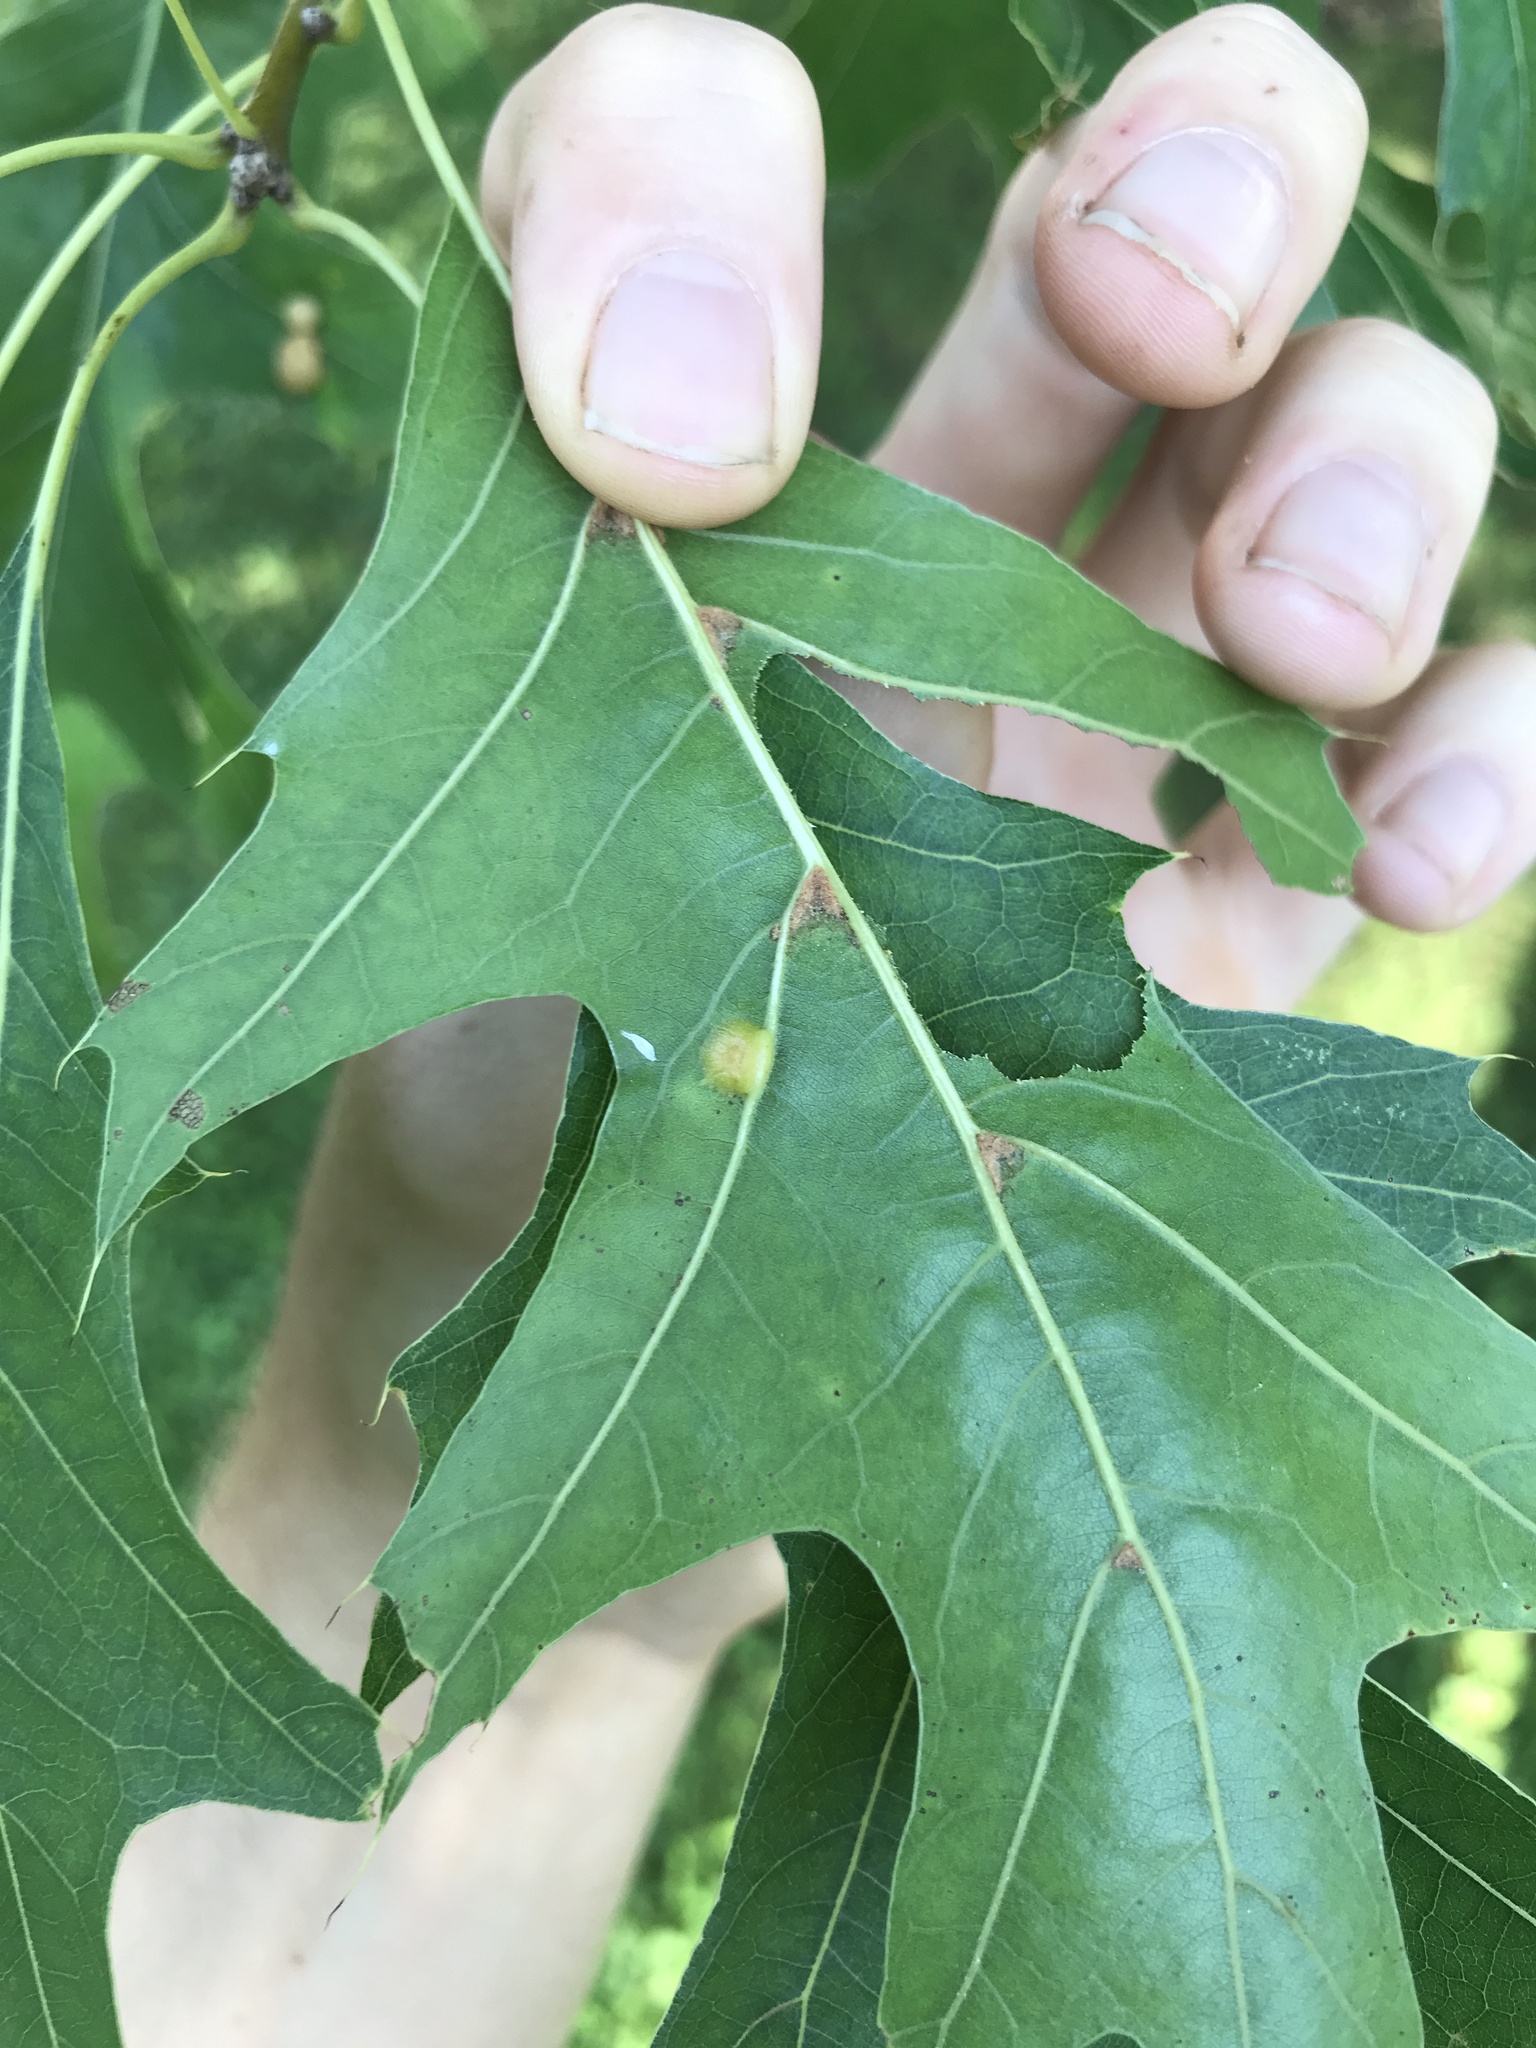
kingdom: Animalia
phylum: Arthropoda
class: Insecta
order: Diptera
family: Cecidomyiidae
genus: Polystepha
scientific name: Polystepha pilulae
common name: Oak leaf gall midge
